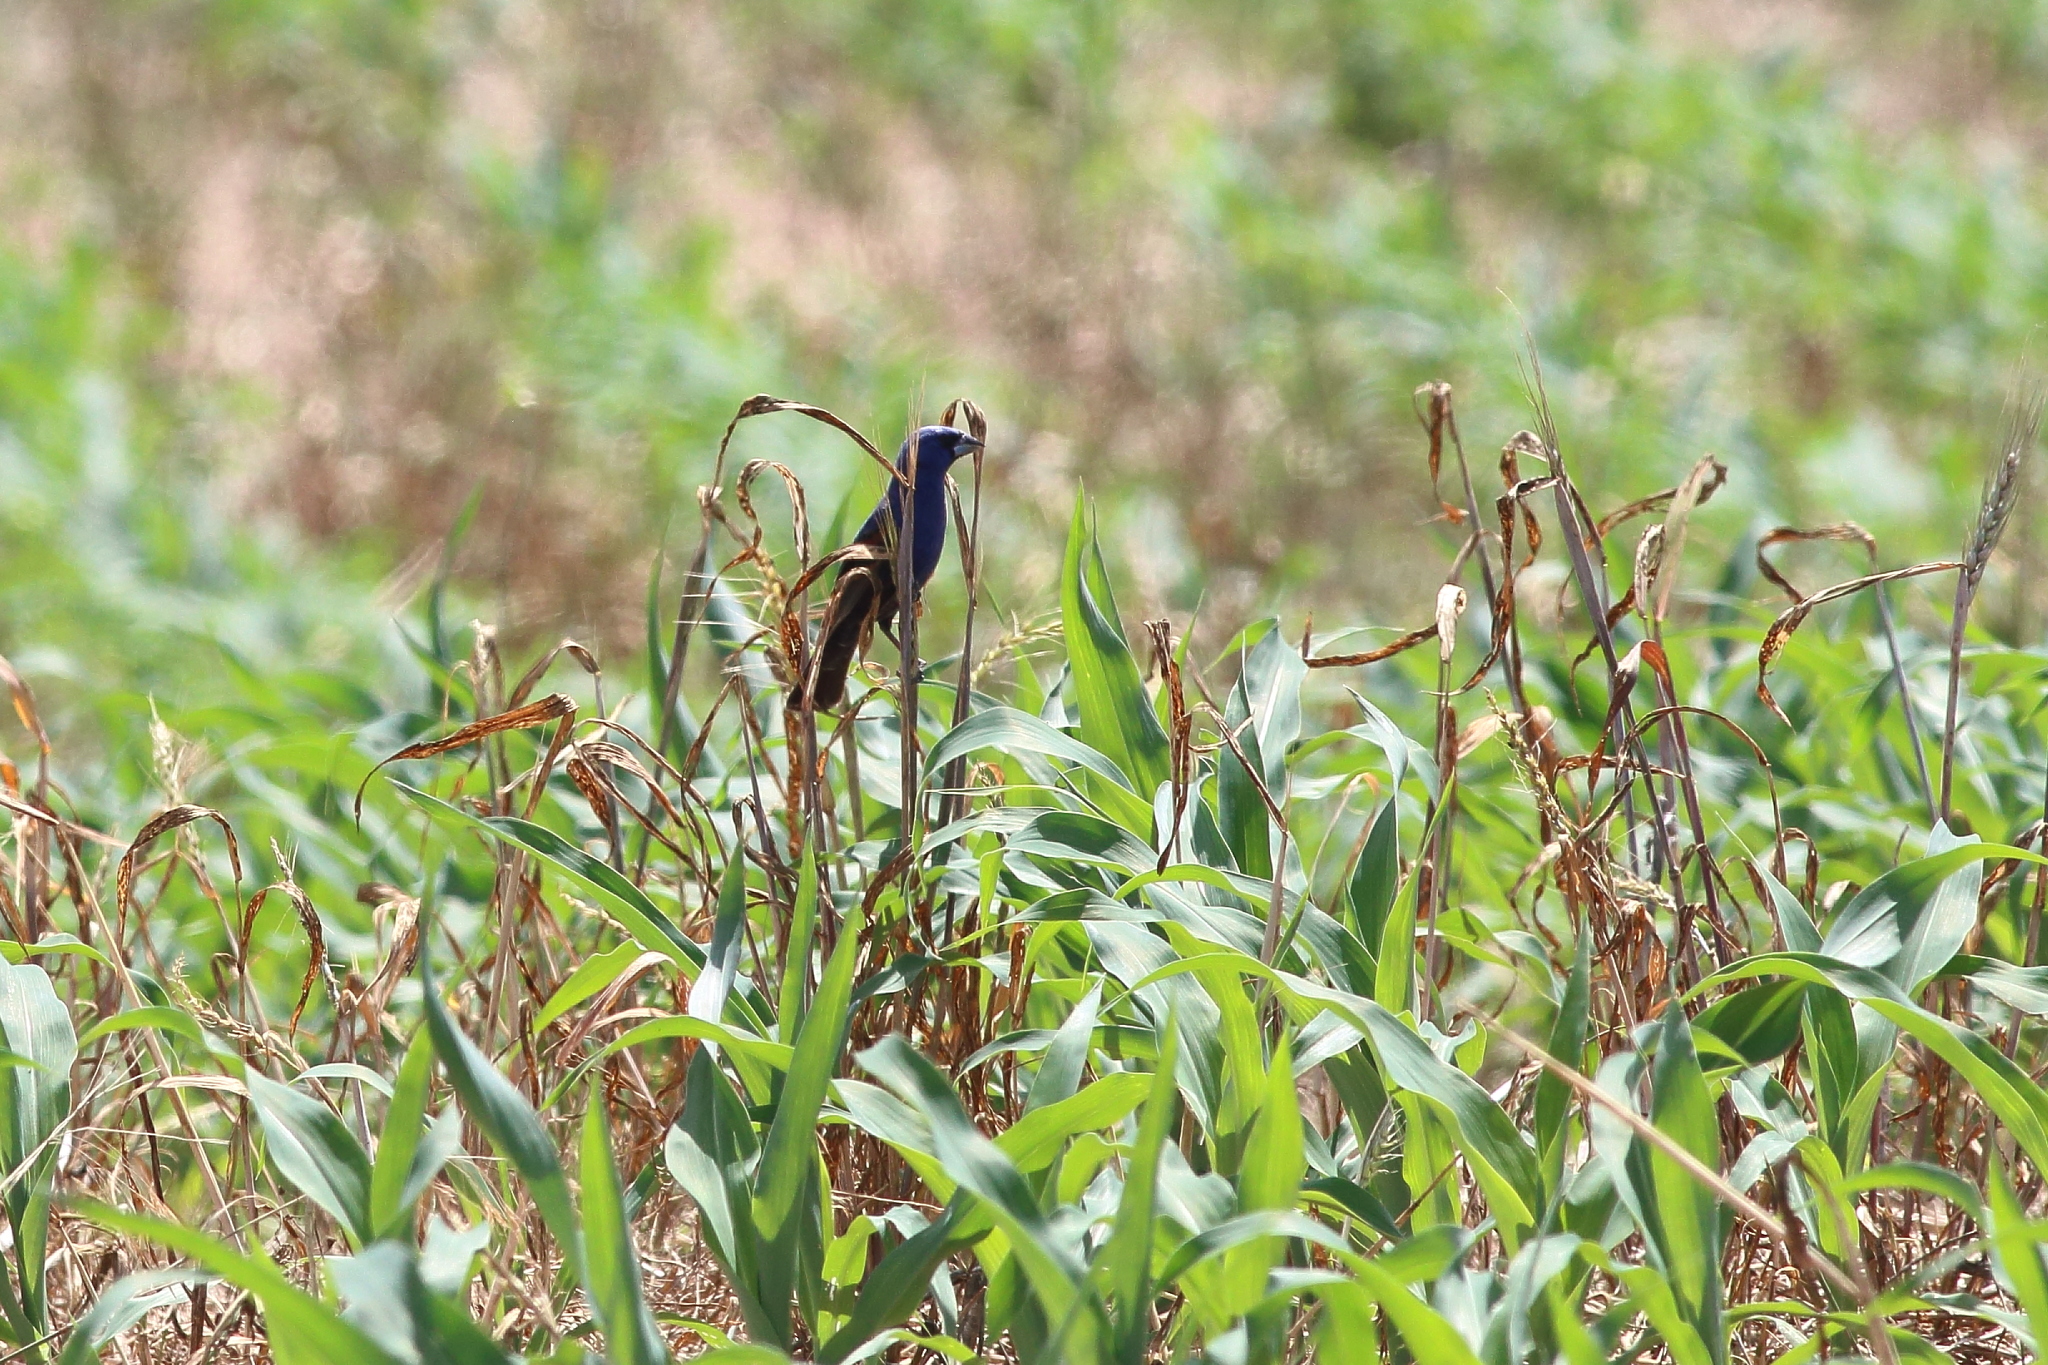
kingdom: Animalia
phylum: Chordata
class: Aves
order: Passeriformes
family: Cardinalidae
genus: Passerina
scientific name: Passerina caerulea
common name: Blue grosbeak
